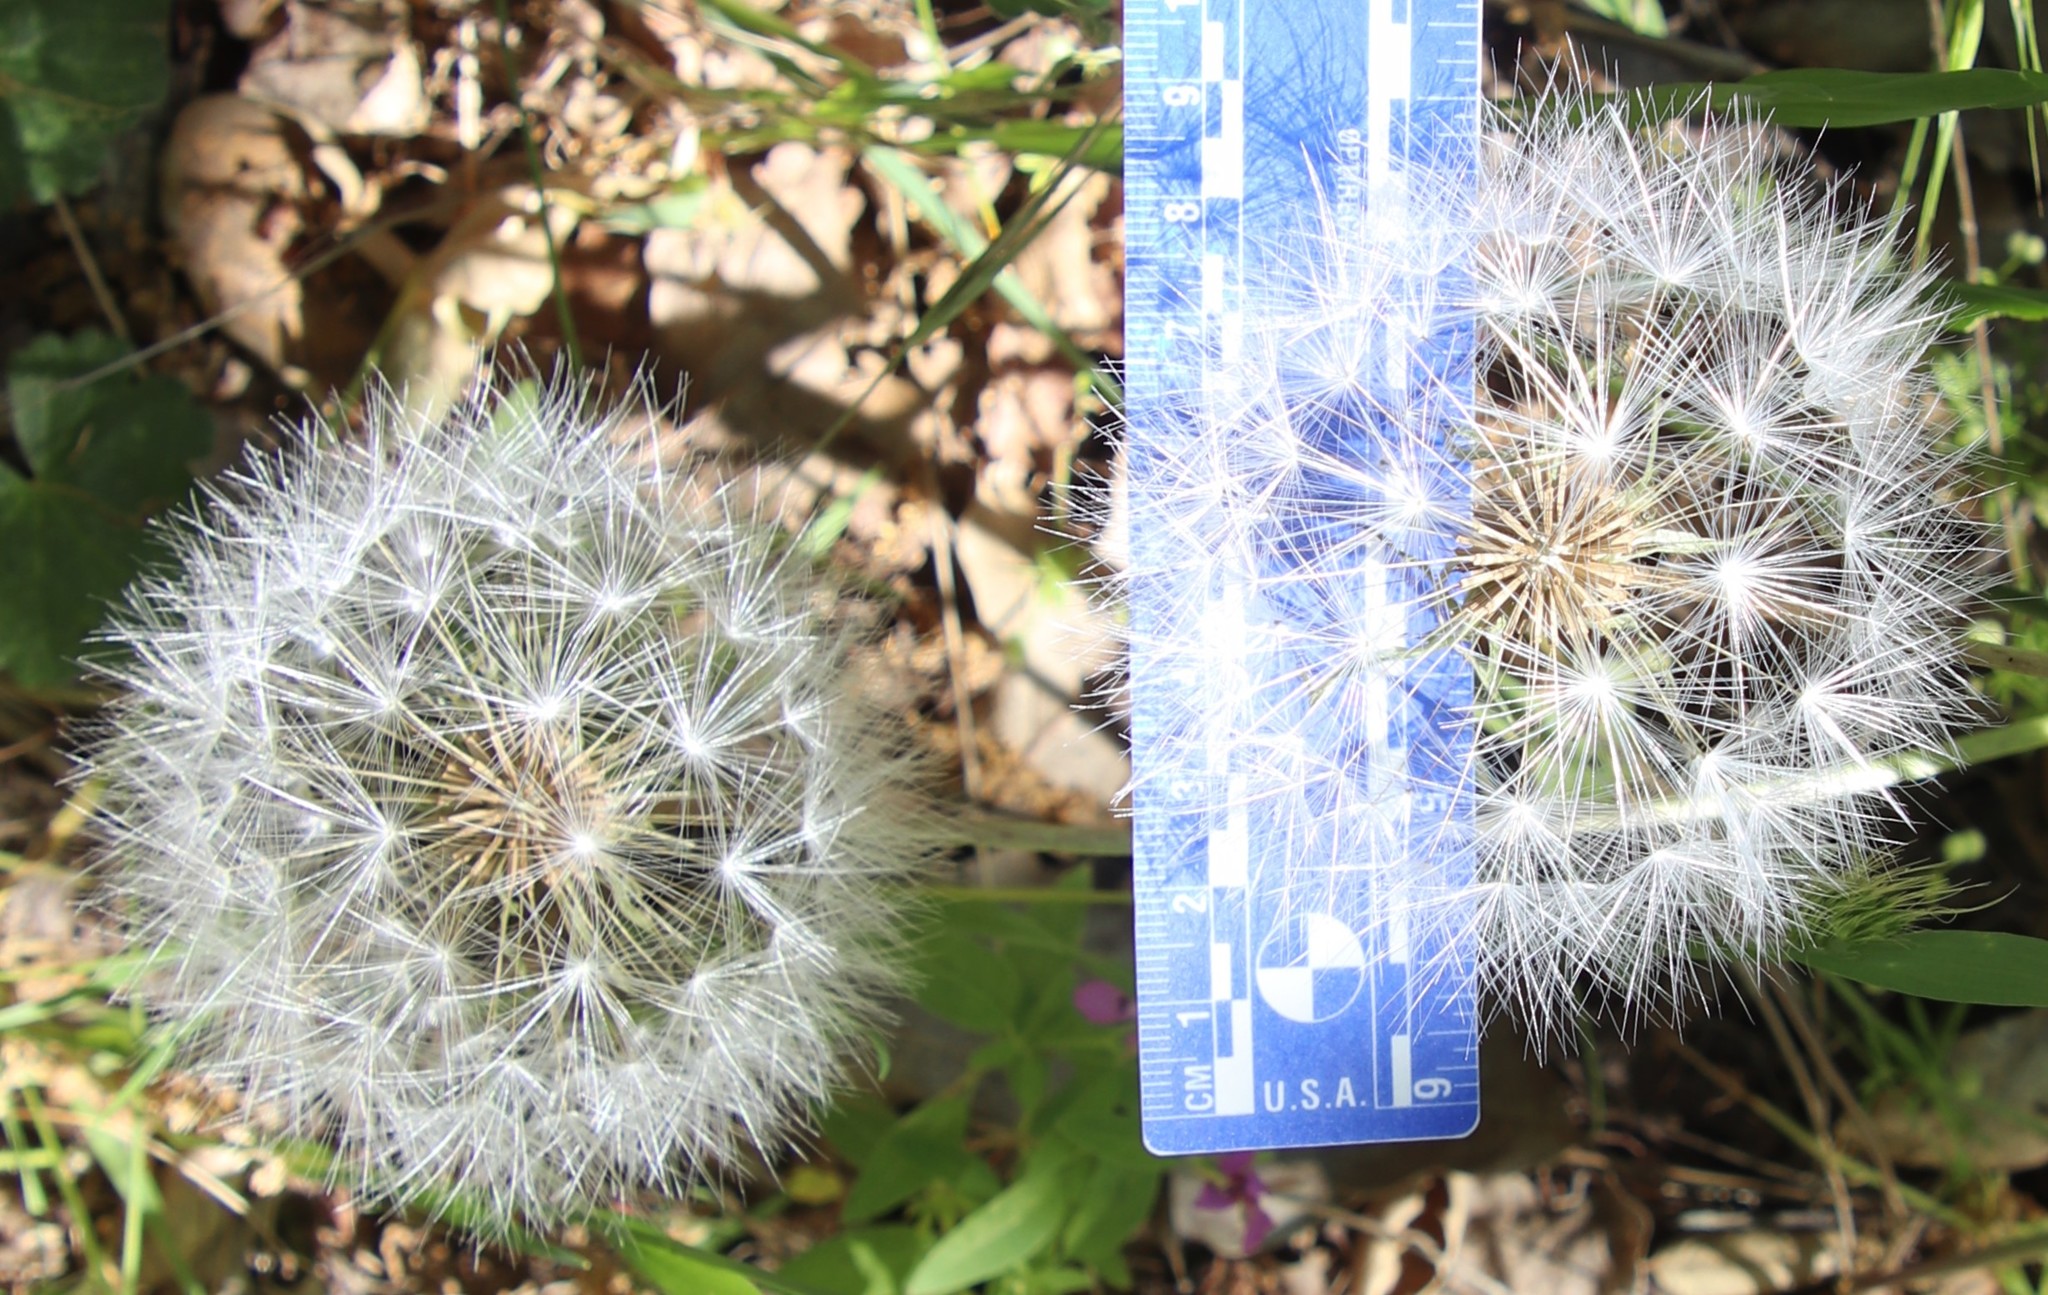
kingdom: Plantae
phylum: Tracheophyta
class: Magnoliopsida
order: Asterales
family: Asteraceae
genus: Agoseris
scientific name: Agoseris retrorsa
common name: Spearleaf agoseris
